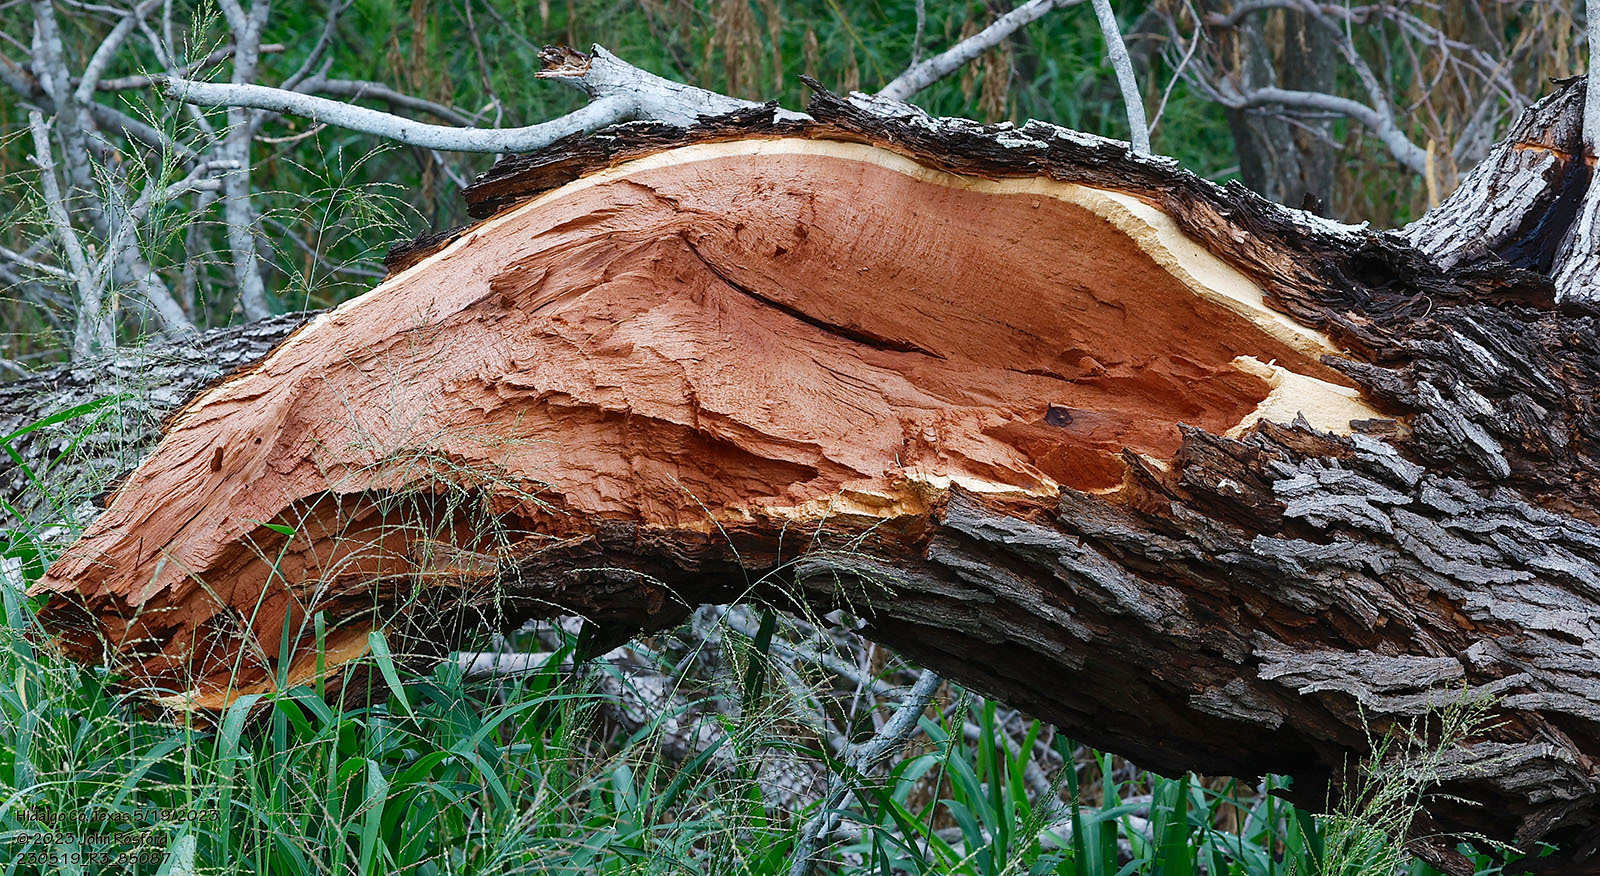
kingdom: Plantae
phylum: Tracheophyta
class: Magnoliopsida
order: Fabales
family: Fabaceae
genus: Prosopis
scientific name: Prosopis glandulosa
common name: Honey mesquite
